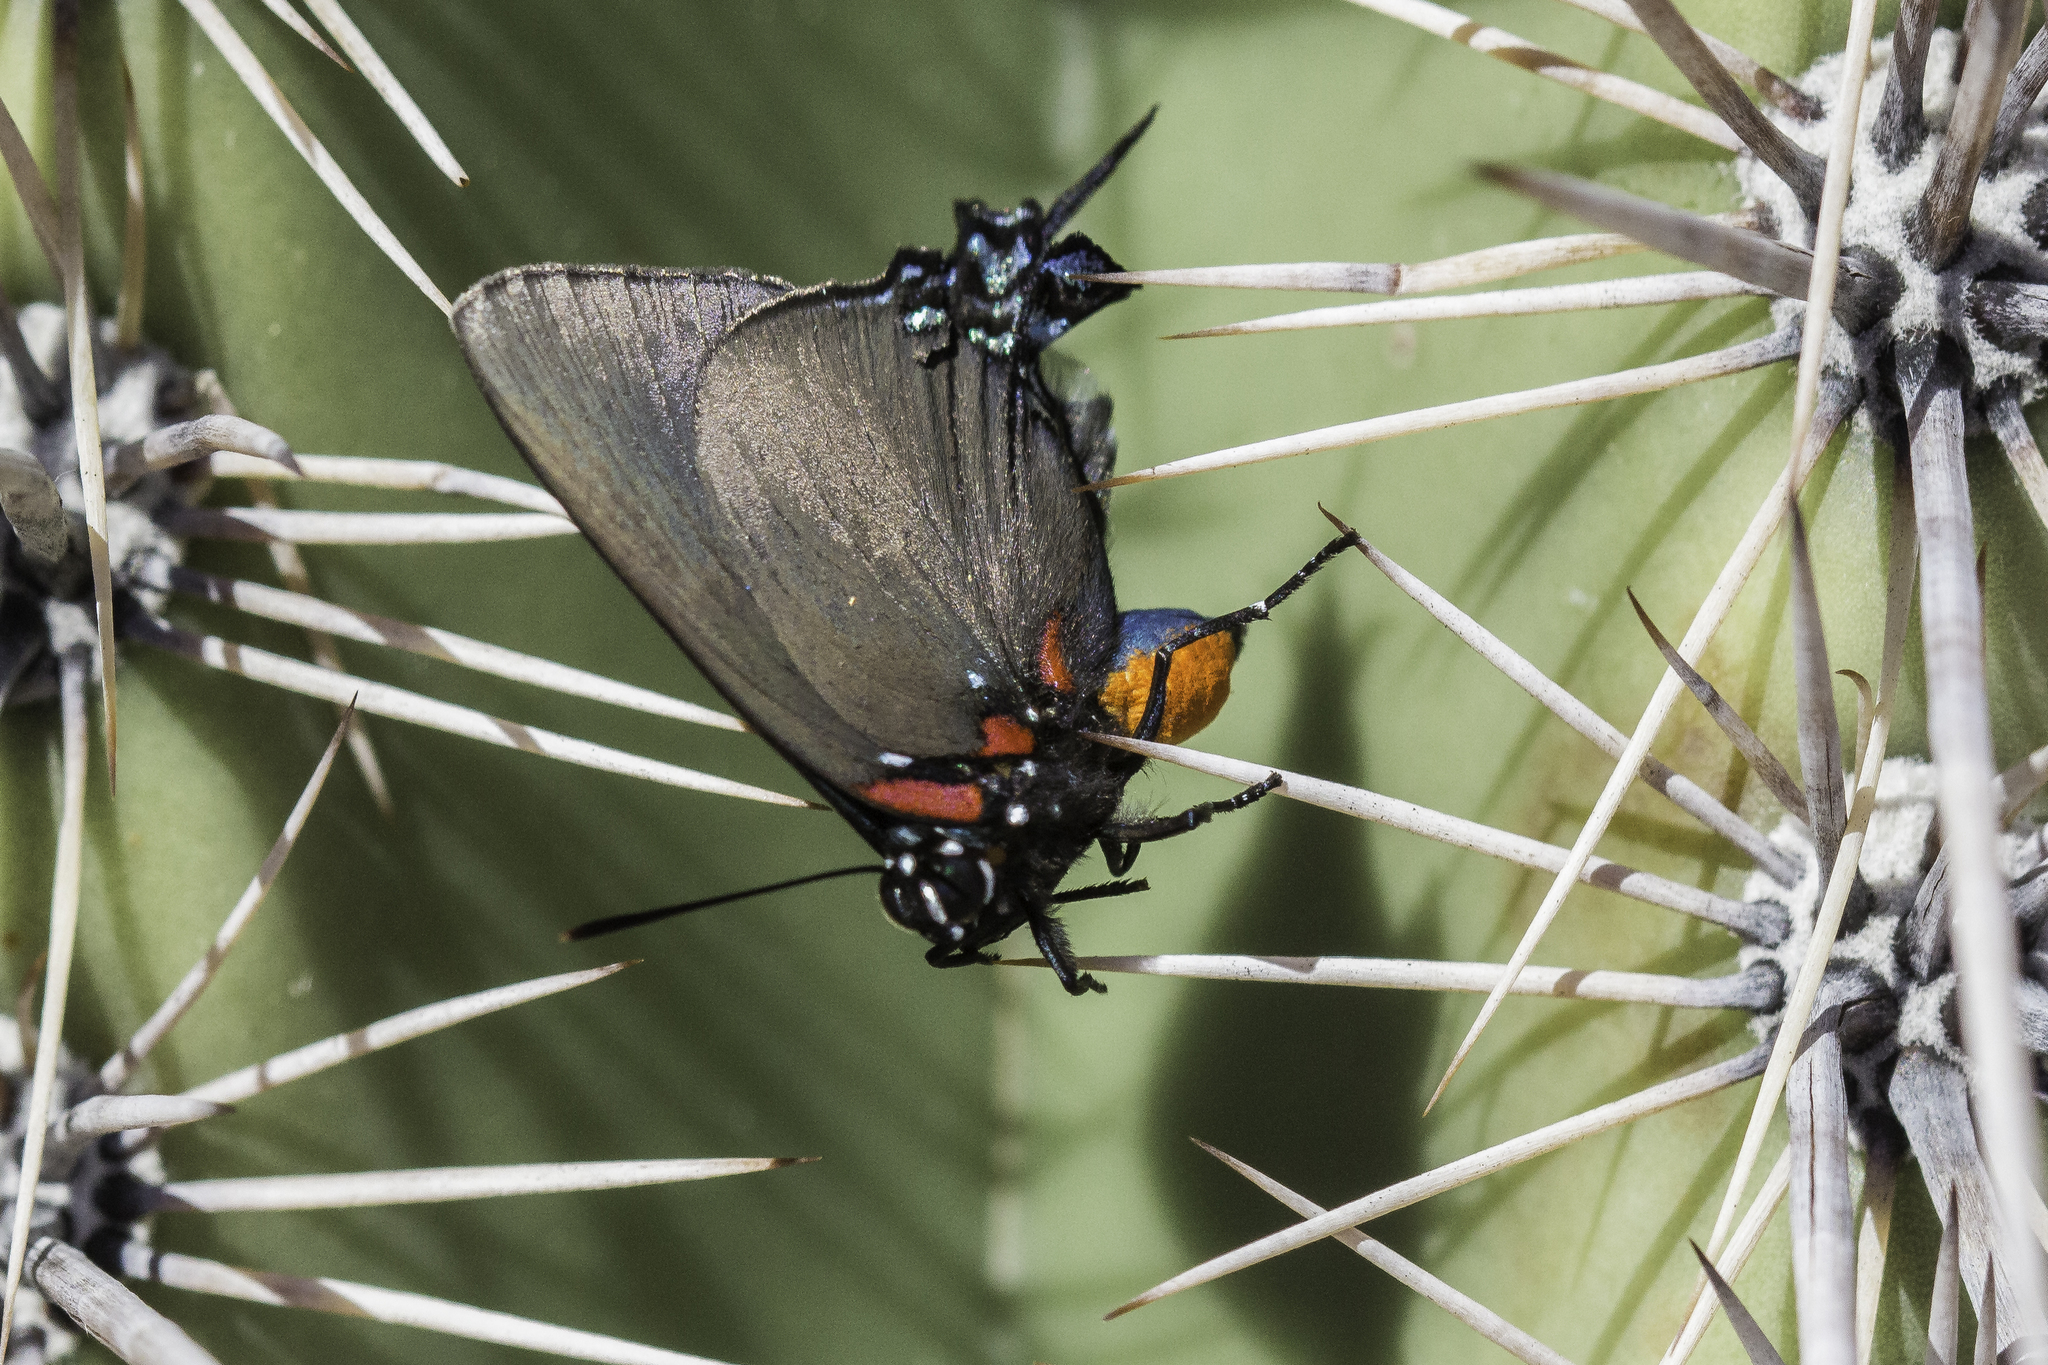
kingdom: Animalia
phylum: Arthropoda
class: Insecta
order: Lepidoptera
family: Lycaenidae
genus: Atlides
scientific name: Atlides halesus
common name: Great purple hairstreak
